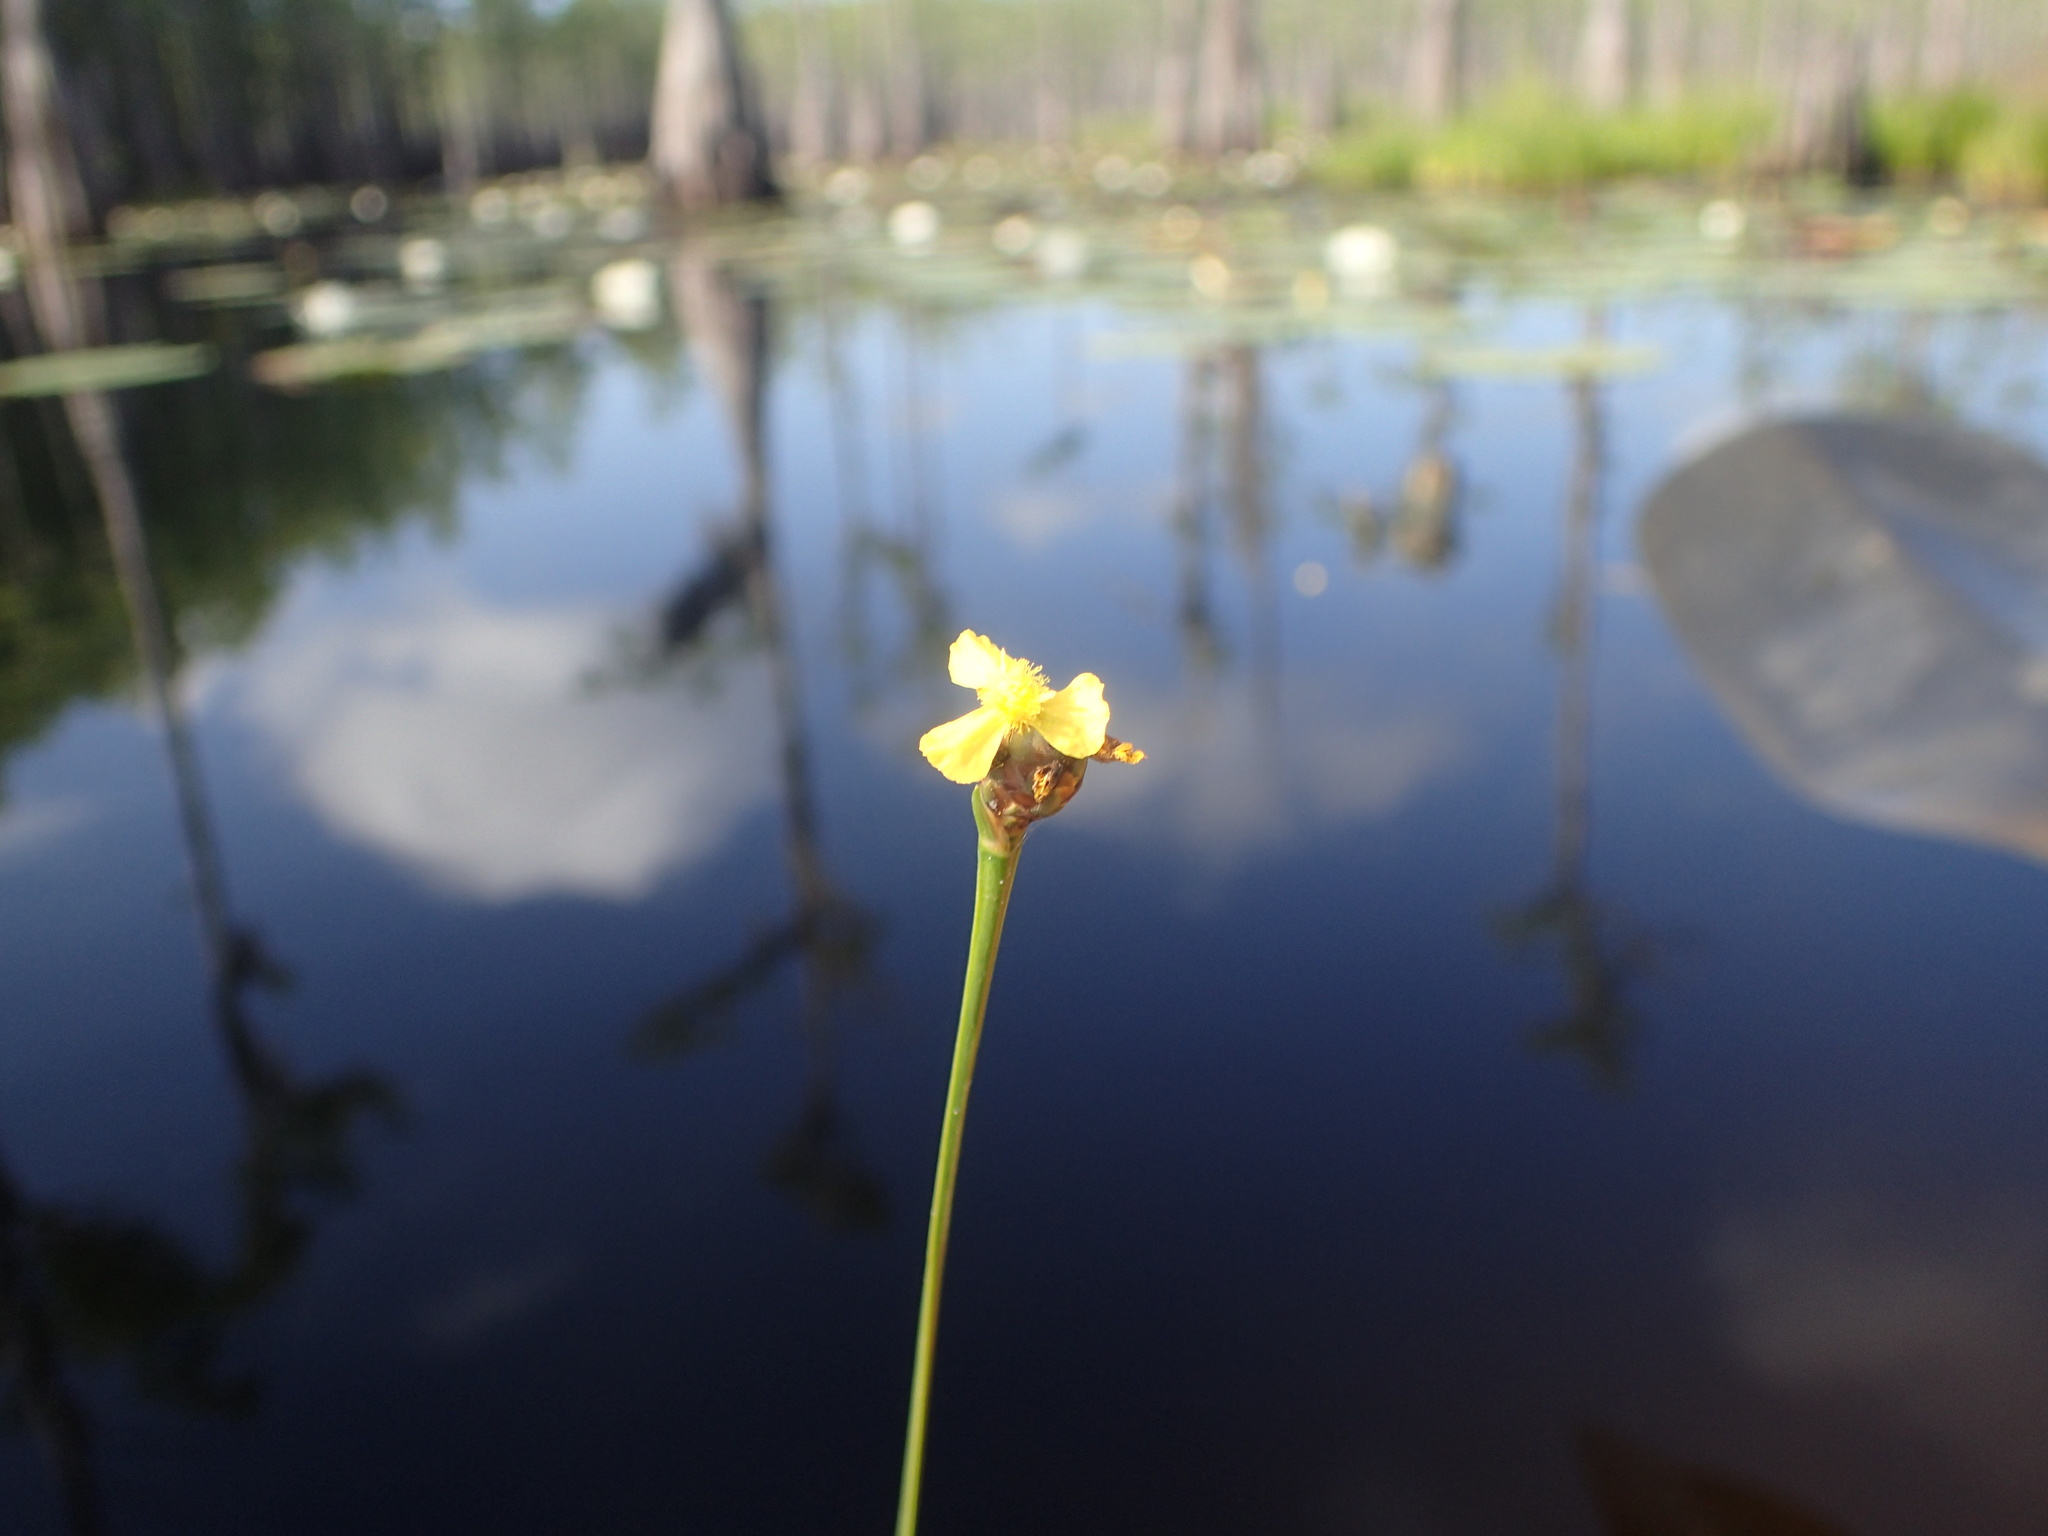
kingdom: Plantae
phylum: Tracheophyta
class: Liliopsida
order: Poales
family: Xyridaceae
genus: Xyris
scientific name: Xyris smalliana
